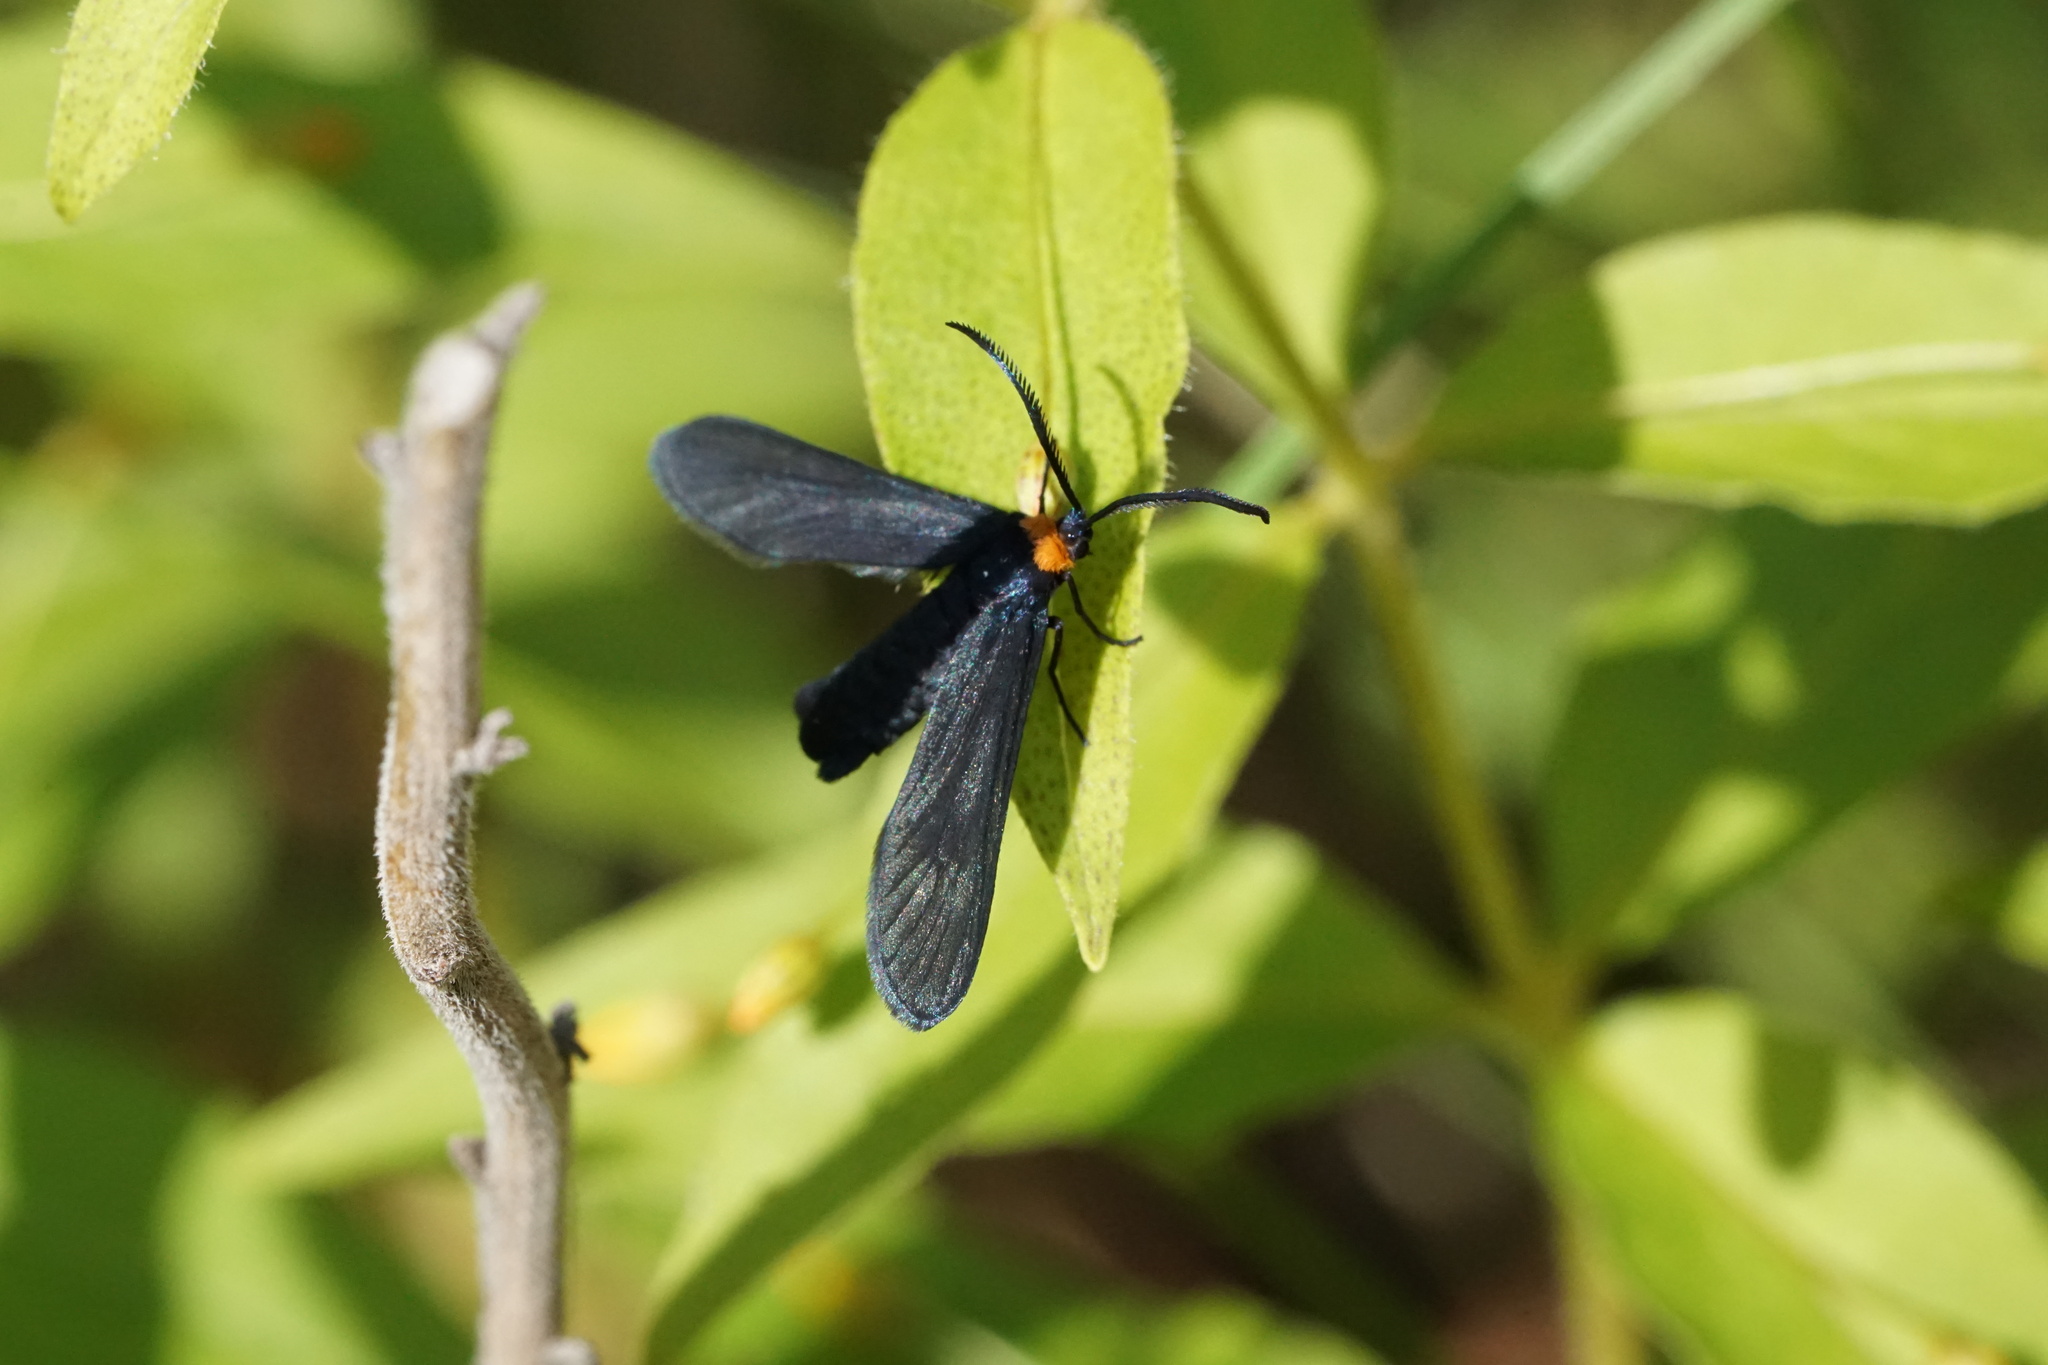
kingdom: Animalia
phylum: Arthropoda
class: Insecta
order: Lepidoptera
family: Zygaenidae
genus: Harrisina
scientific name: Harrisina americana
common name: Grapeleaf skeletonizer moth
